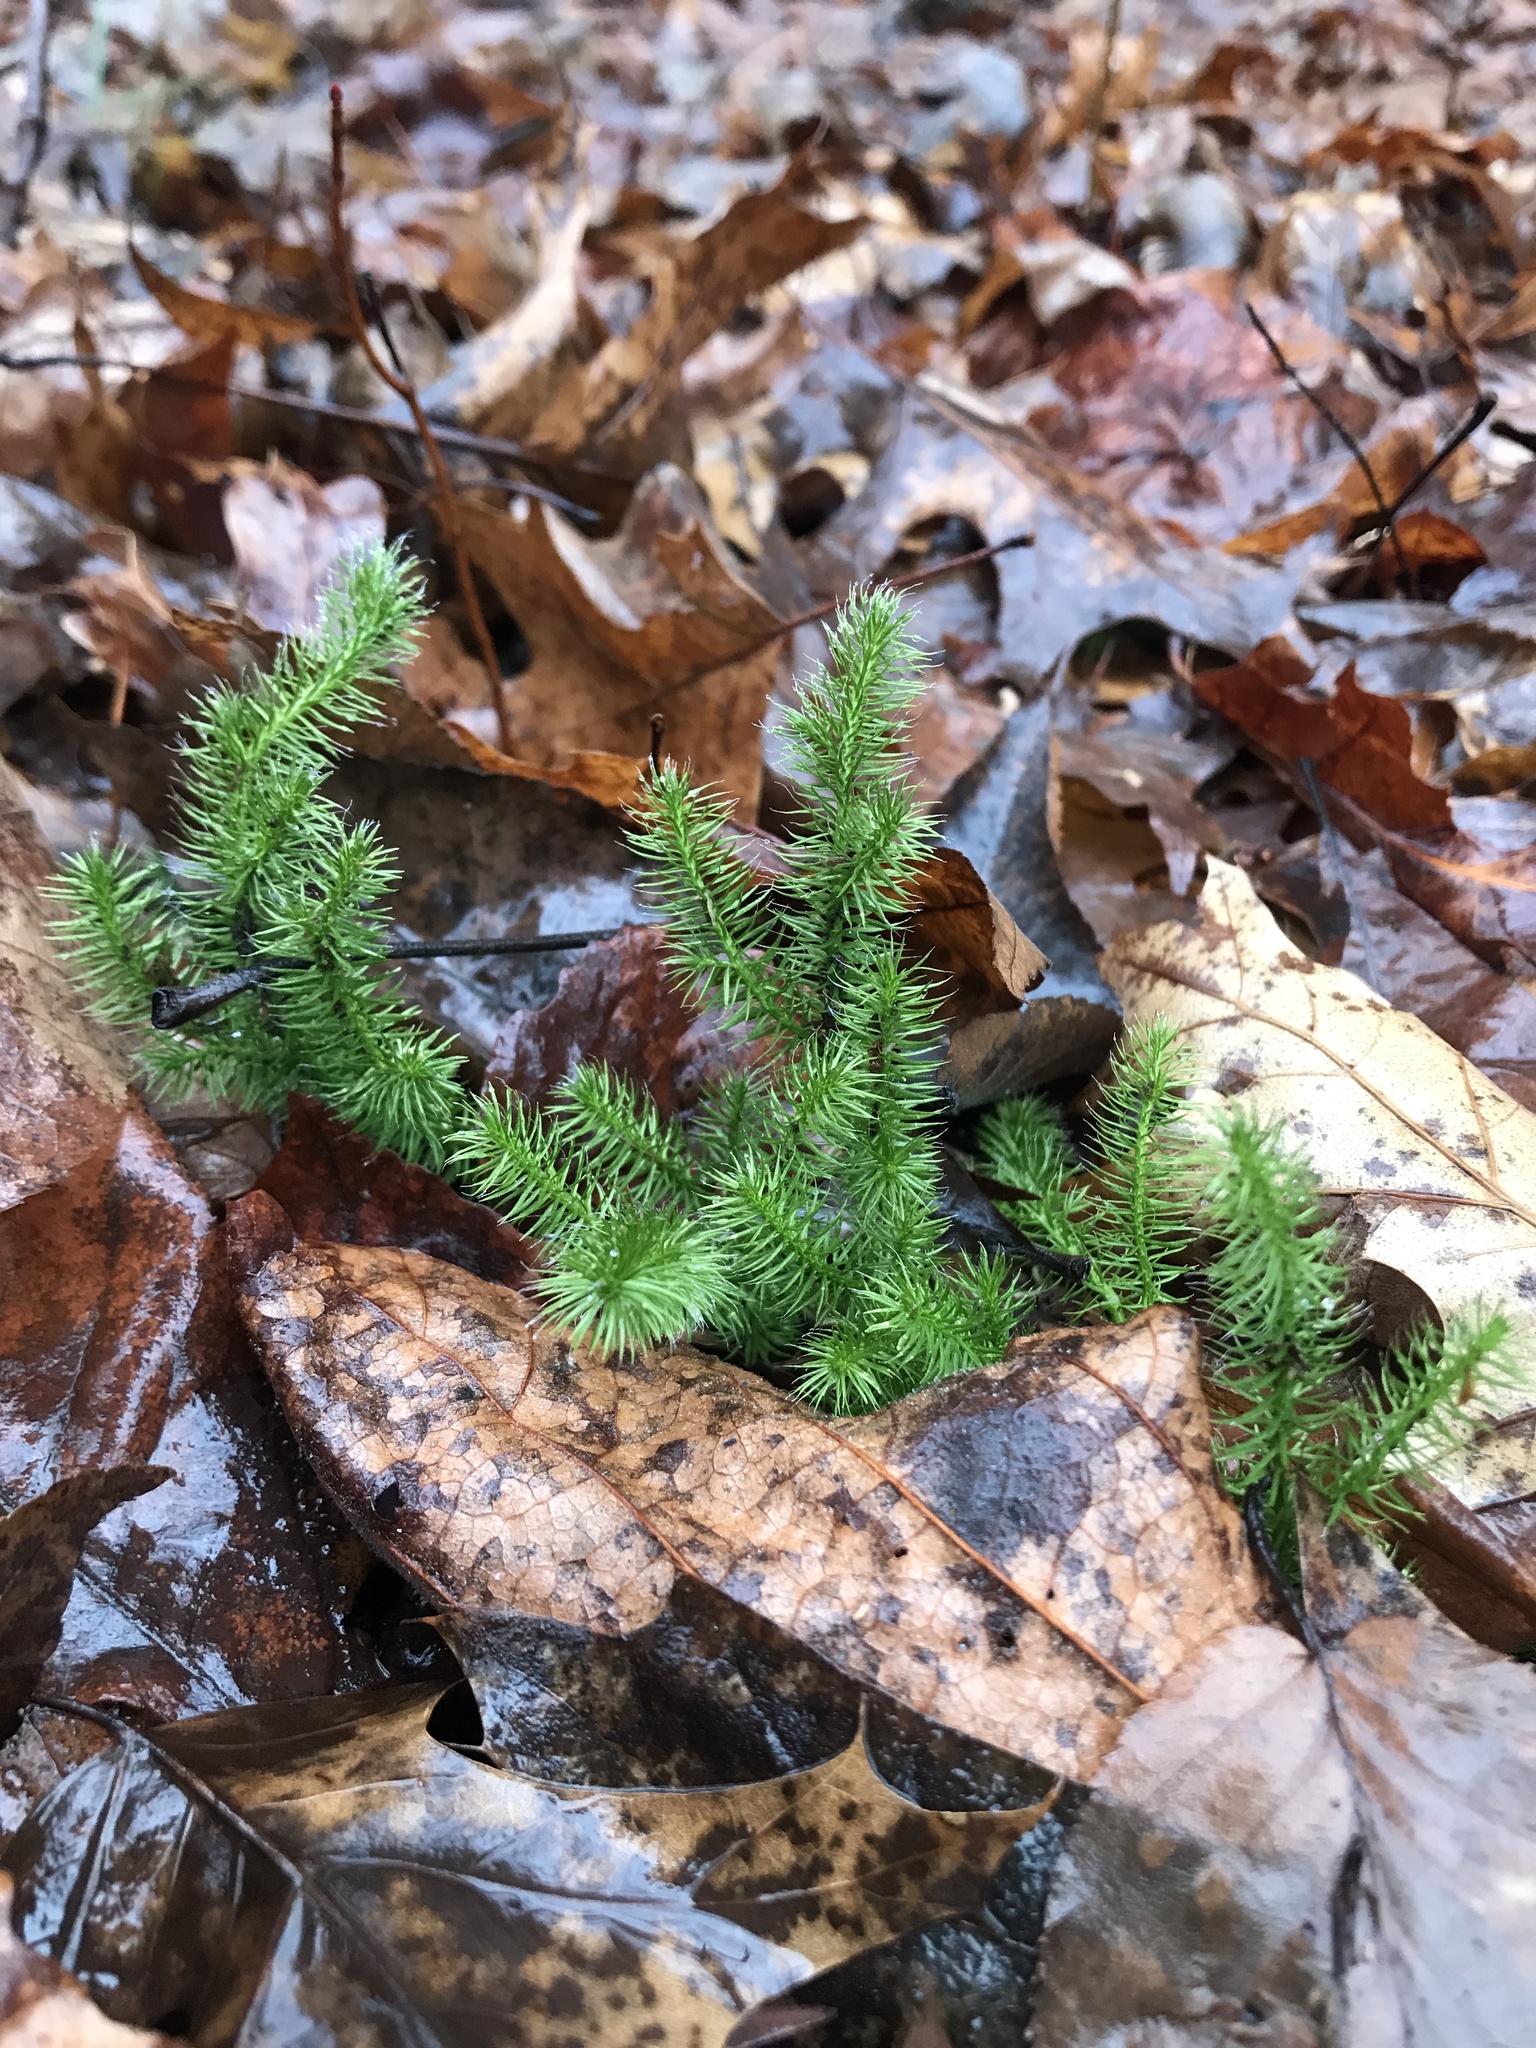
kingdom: Plantae
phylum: Tracheophyta
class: Lycopodiopsida
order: Lycopodiales
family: Lycopodiaceae
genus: Lycopodium
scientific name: Lycopodium clavatum
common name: Stag's-horn clubmoss
